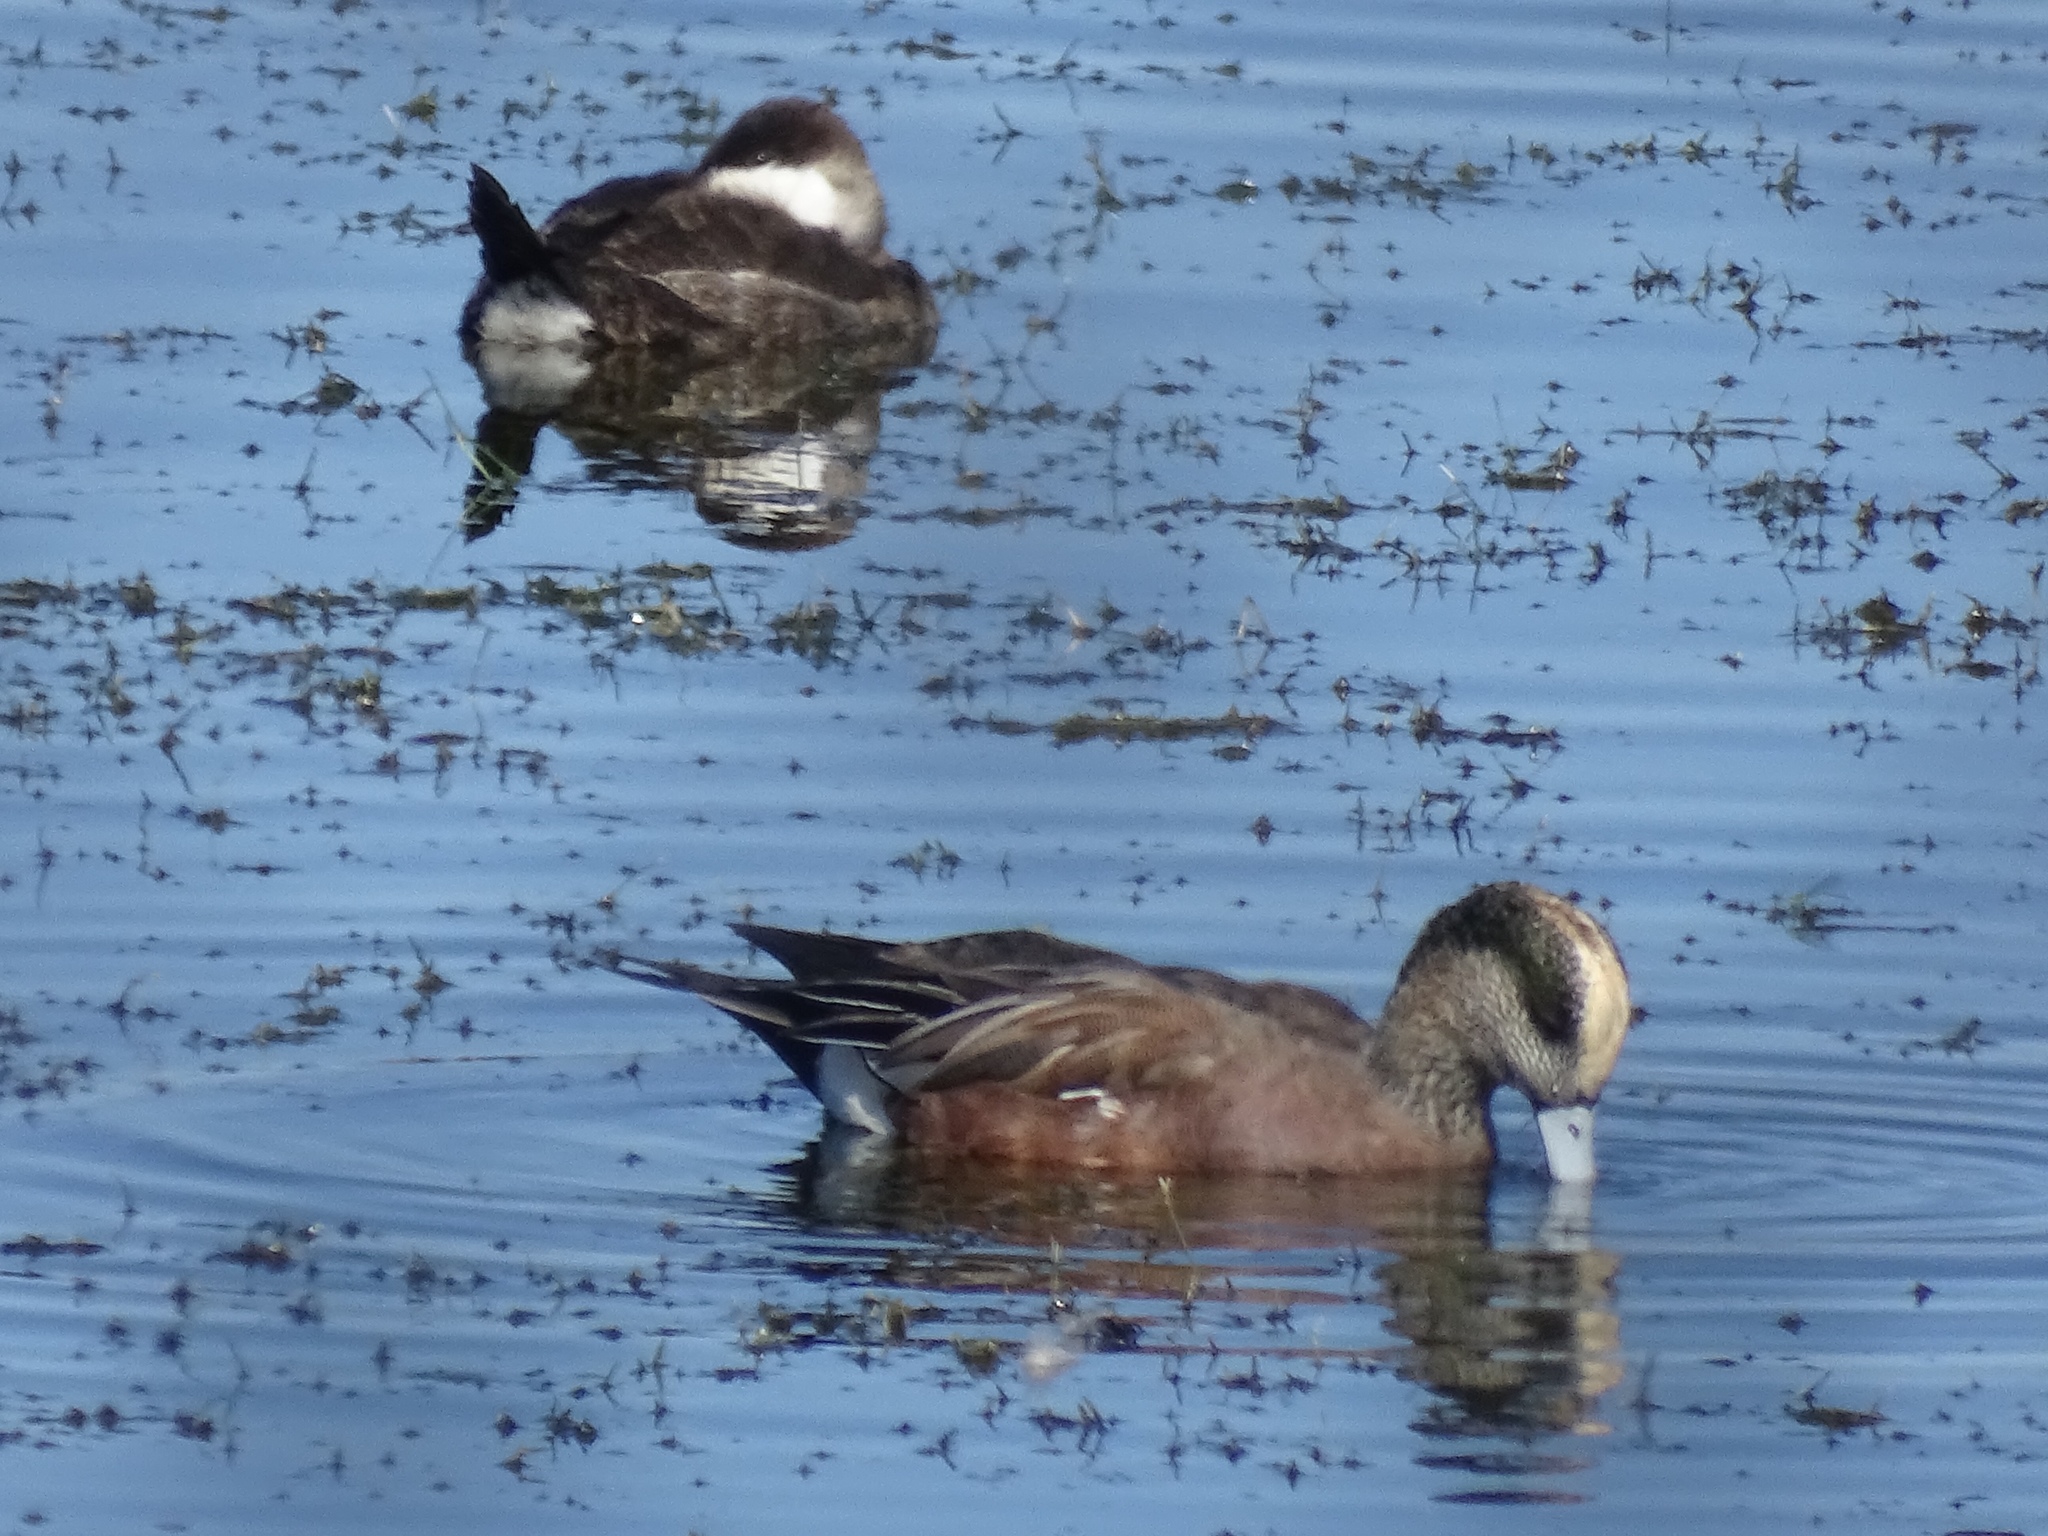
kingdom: Animalia
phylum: Chordata
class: Aves
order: Anseriformes
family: Anatidae
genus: Mareca
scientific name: Mareca americana
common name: American wigeon
